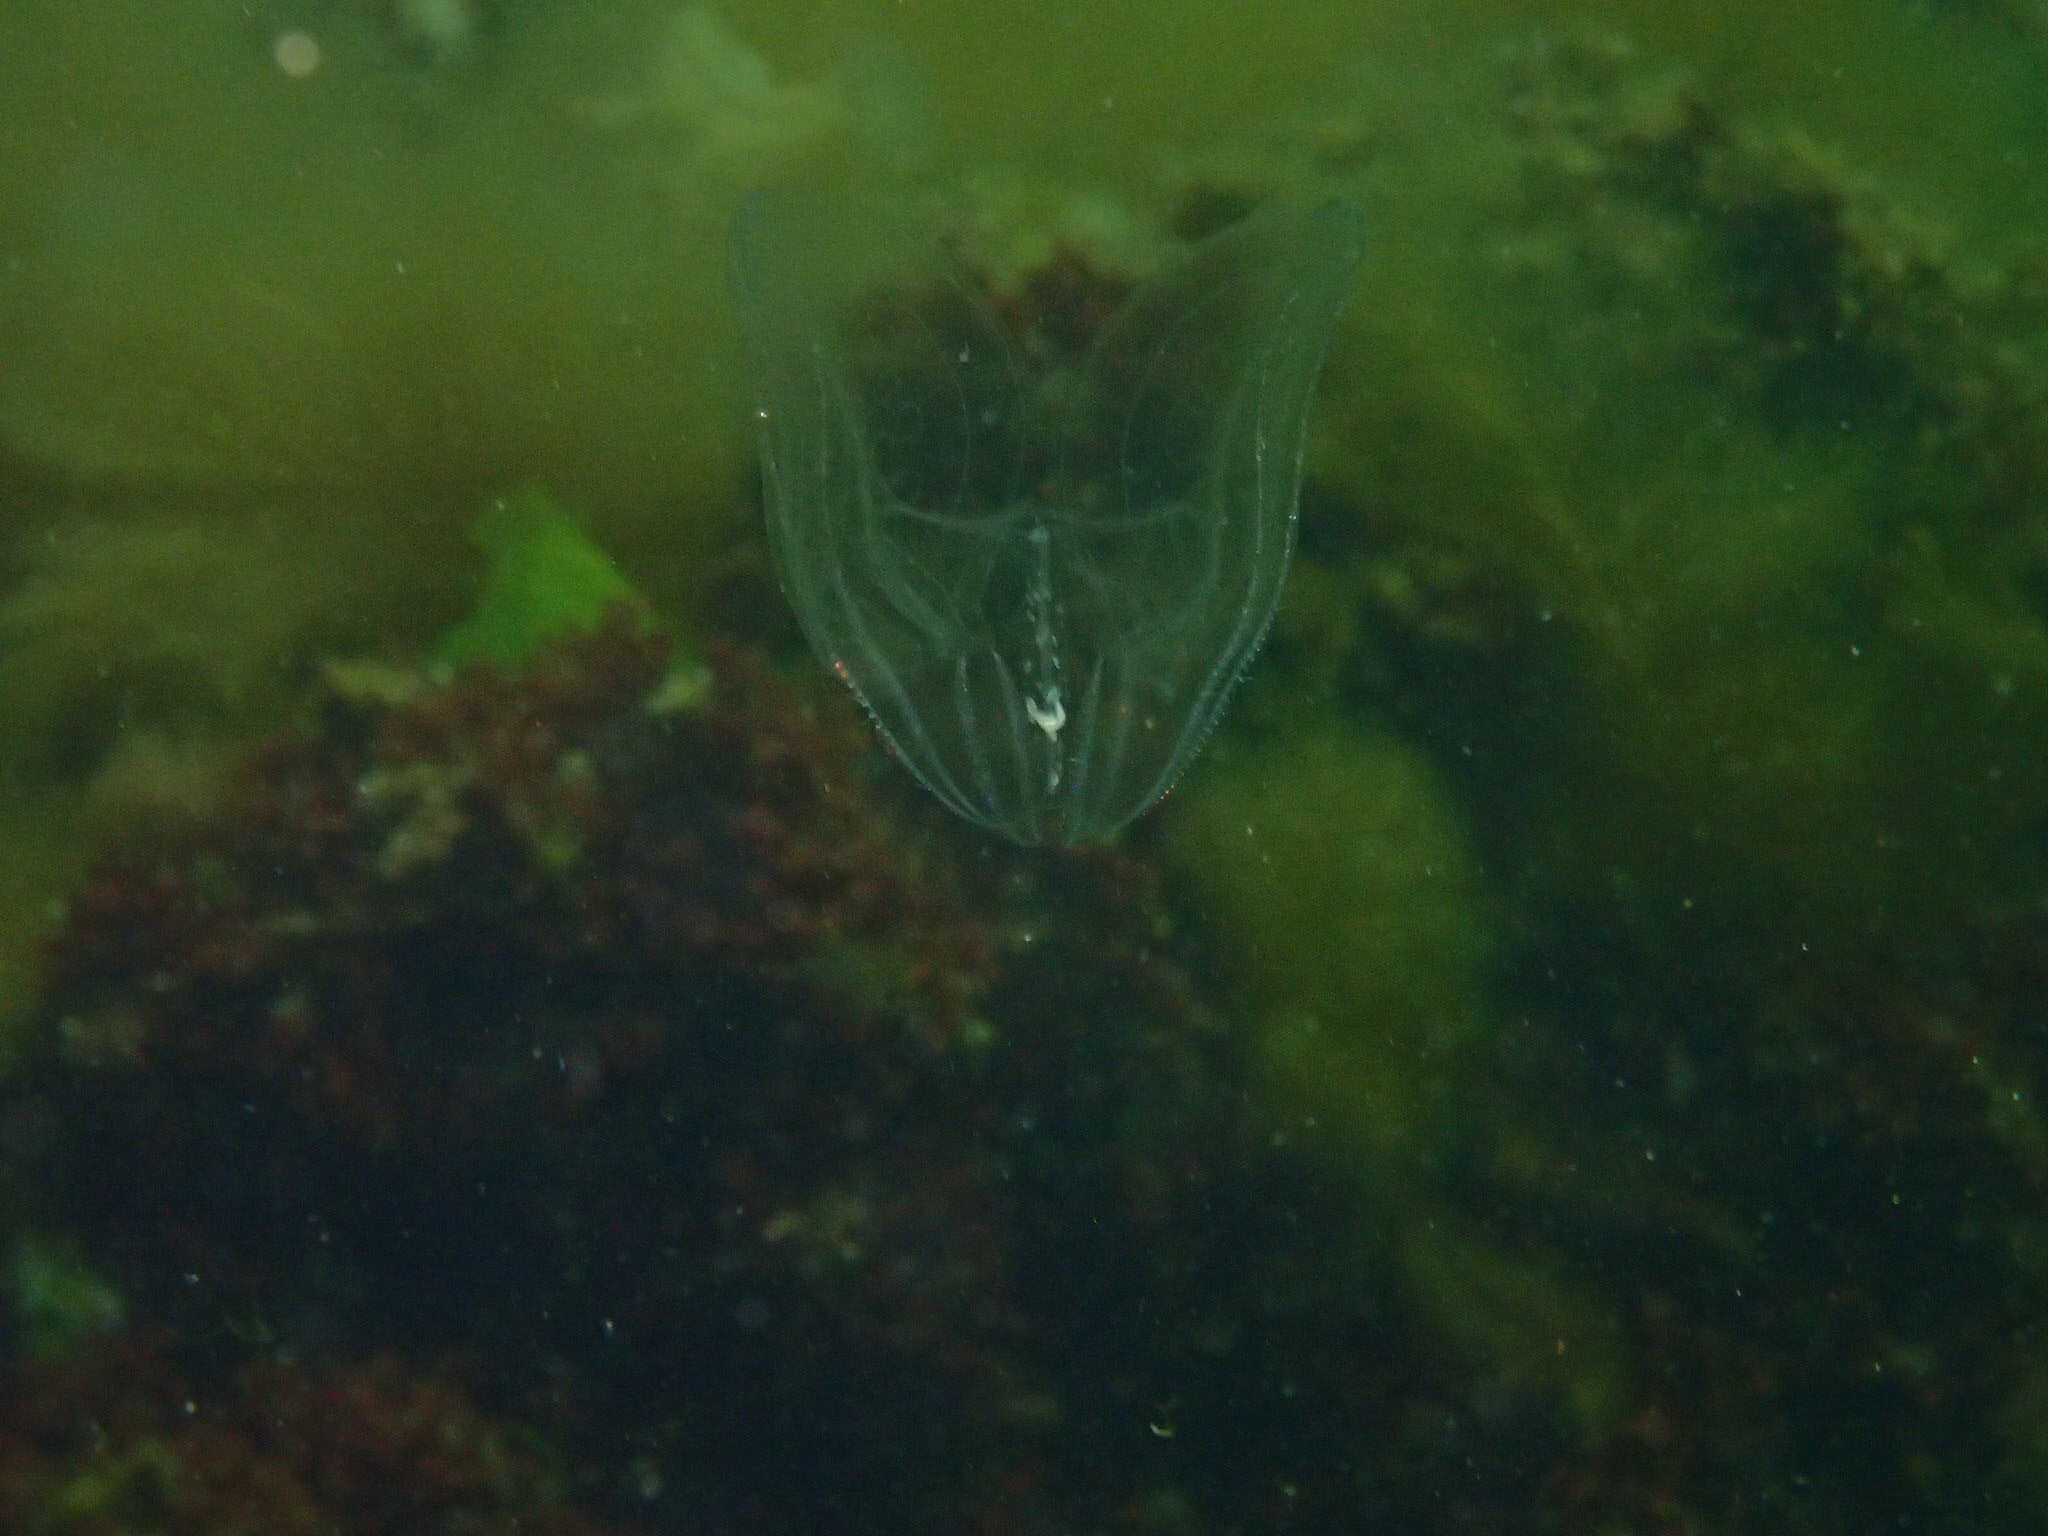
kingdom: Animalia
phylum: Ctenophora
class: Tentaculata
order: Lobata
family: Bolinopsidae
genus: Mnemiopsis
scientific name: Mnemiopsis leidyi
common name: American comb jelly
